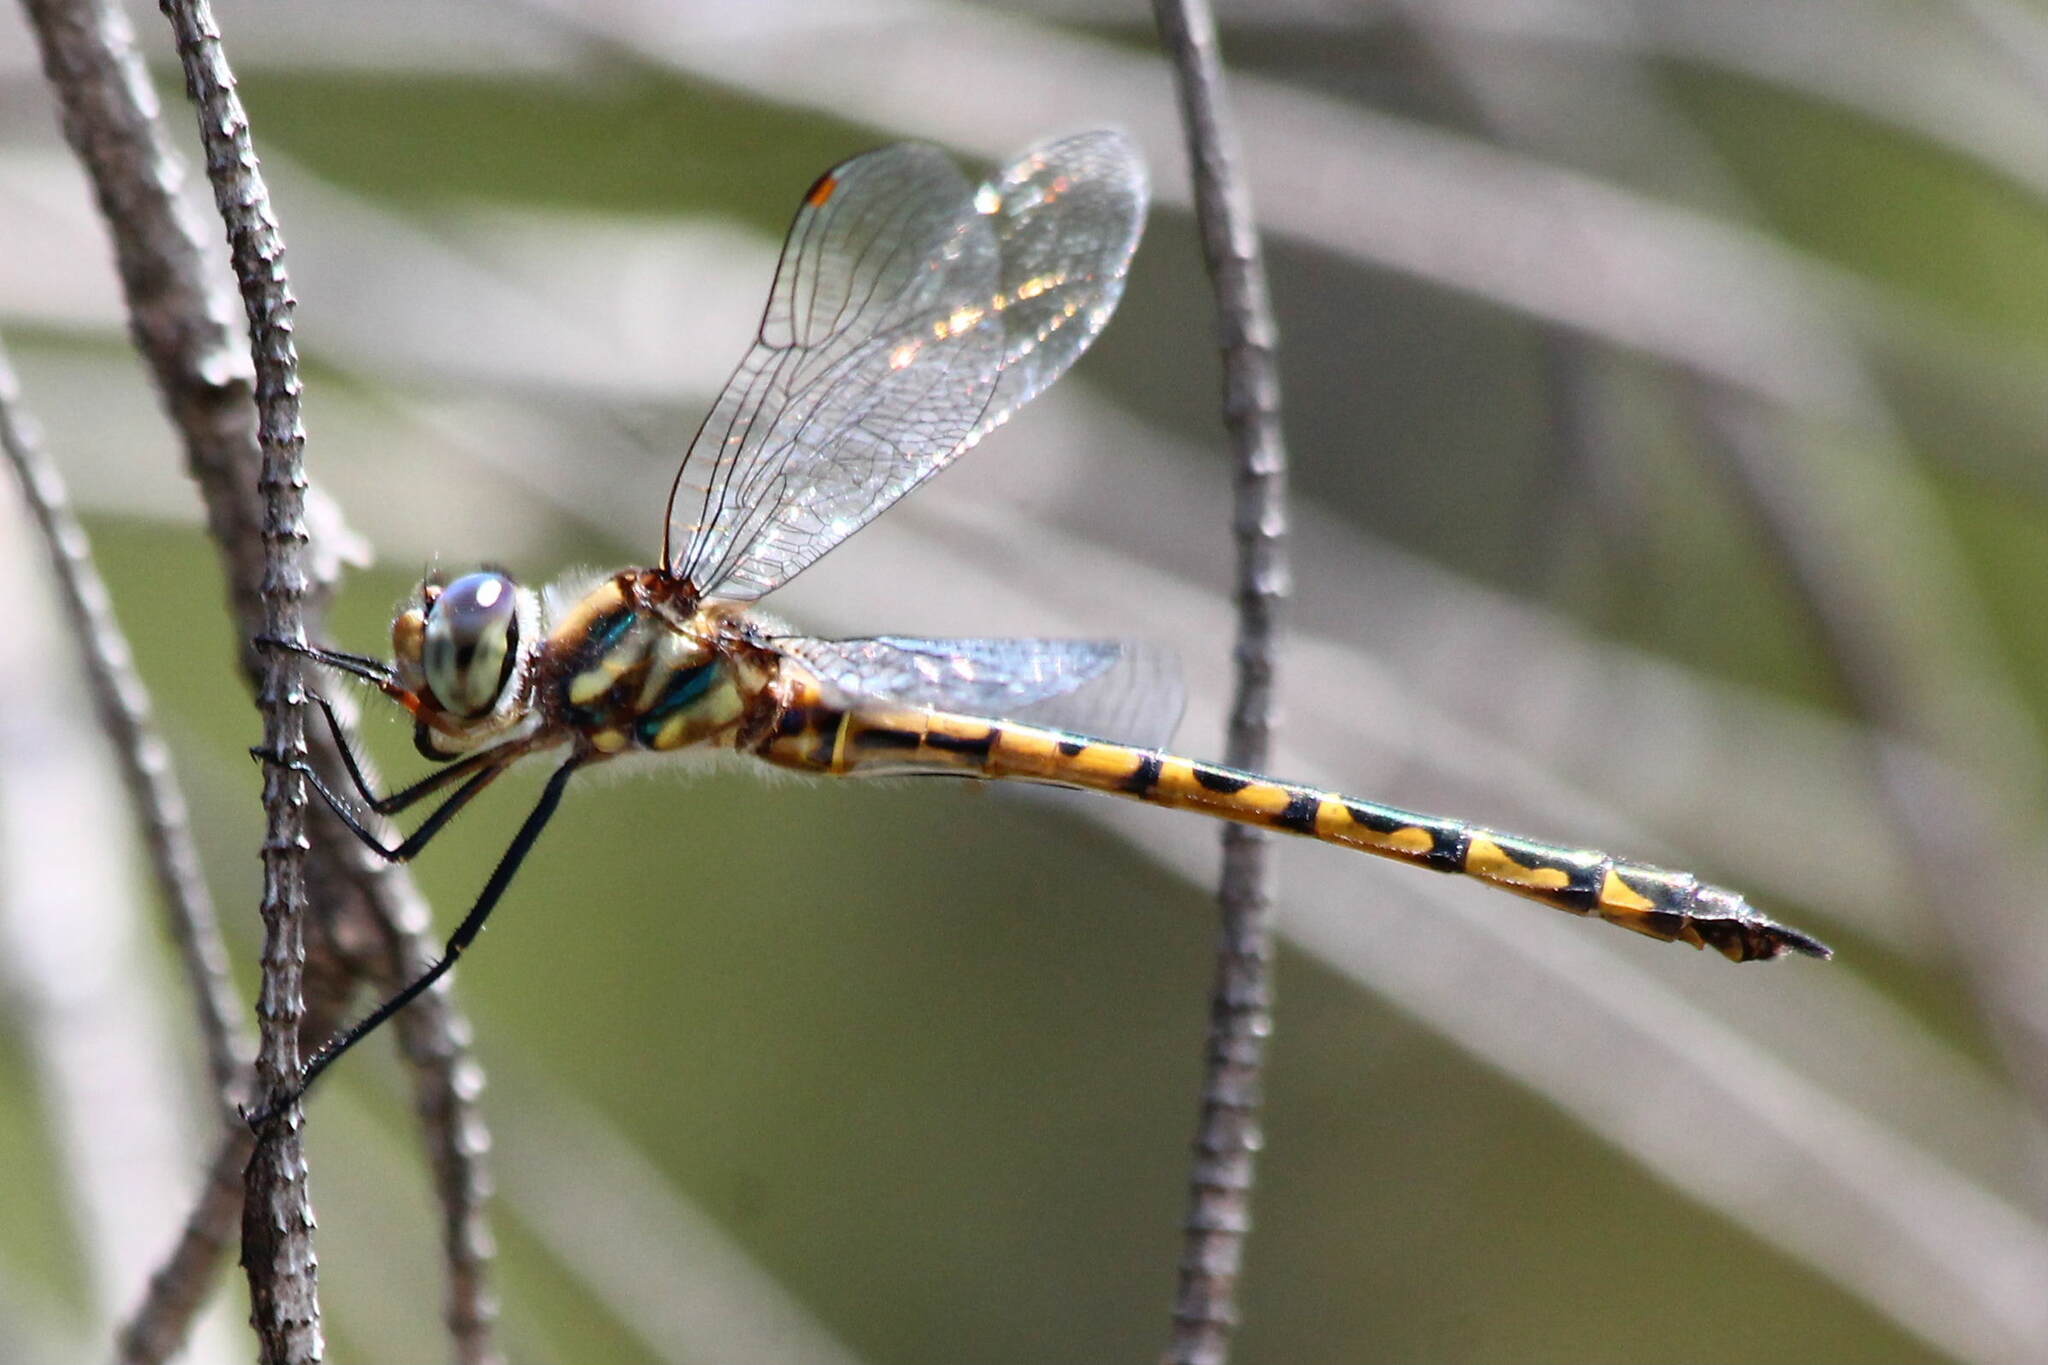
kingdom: Animalia
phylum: Arthropoda
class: Insecta
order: Odonata
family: Corduliidae
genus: Hemicordulia
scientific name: Hemicordulia australiae
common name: Sentry dragonfly
